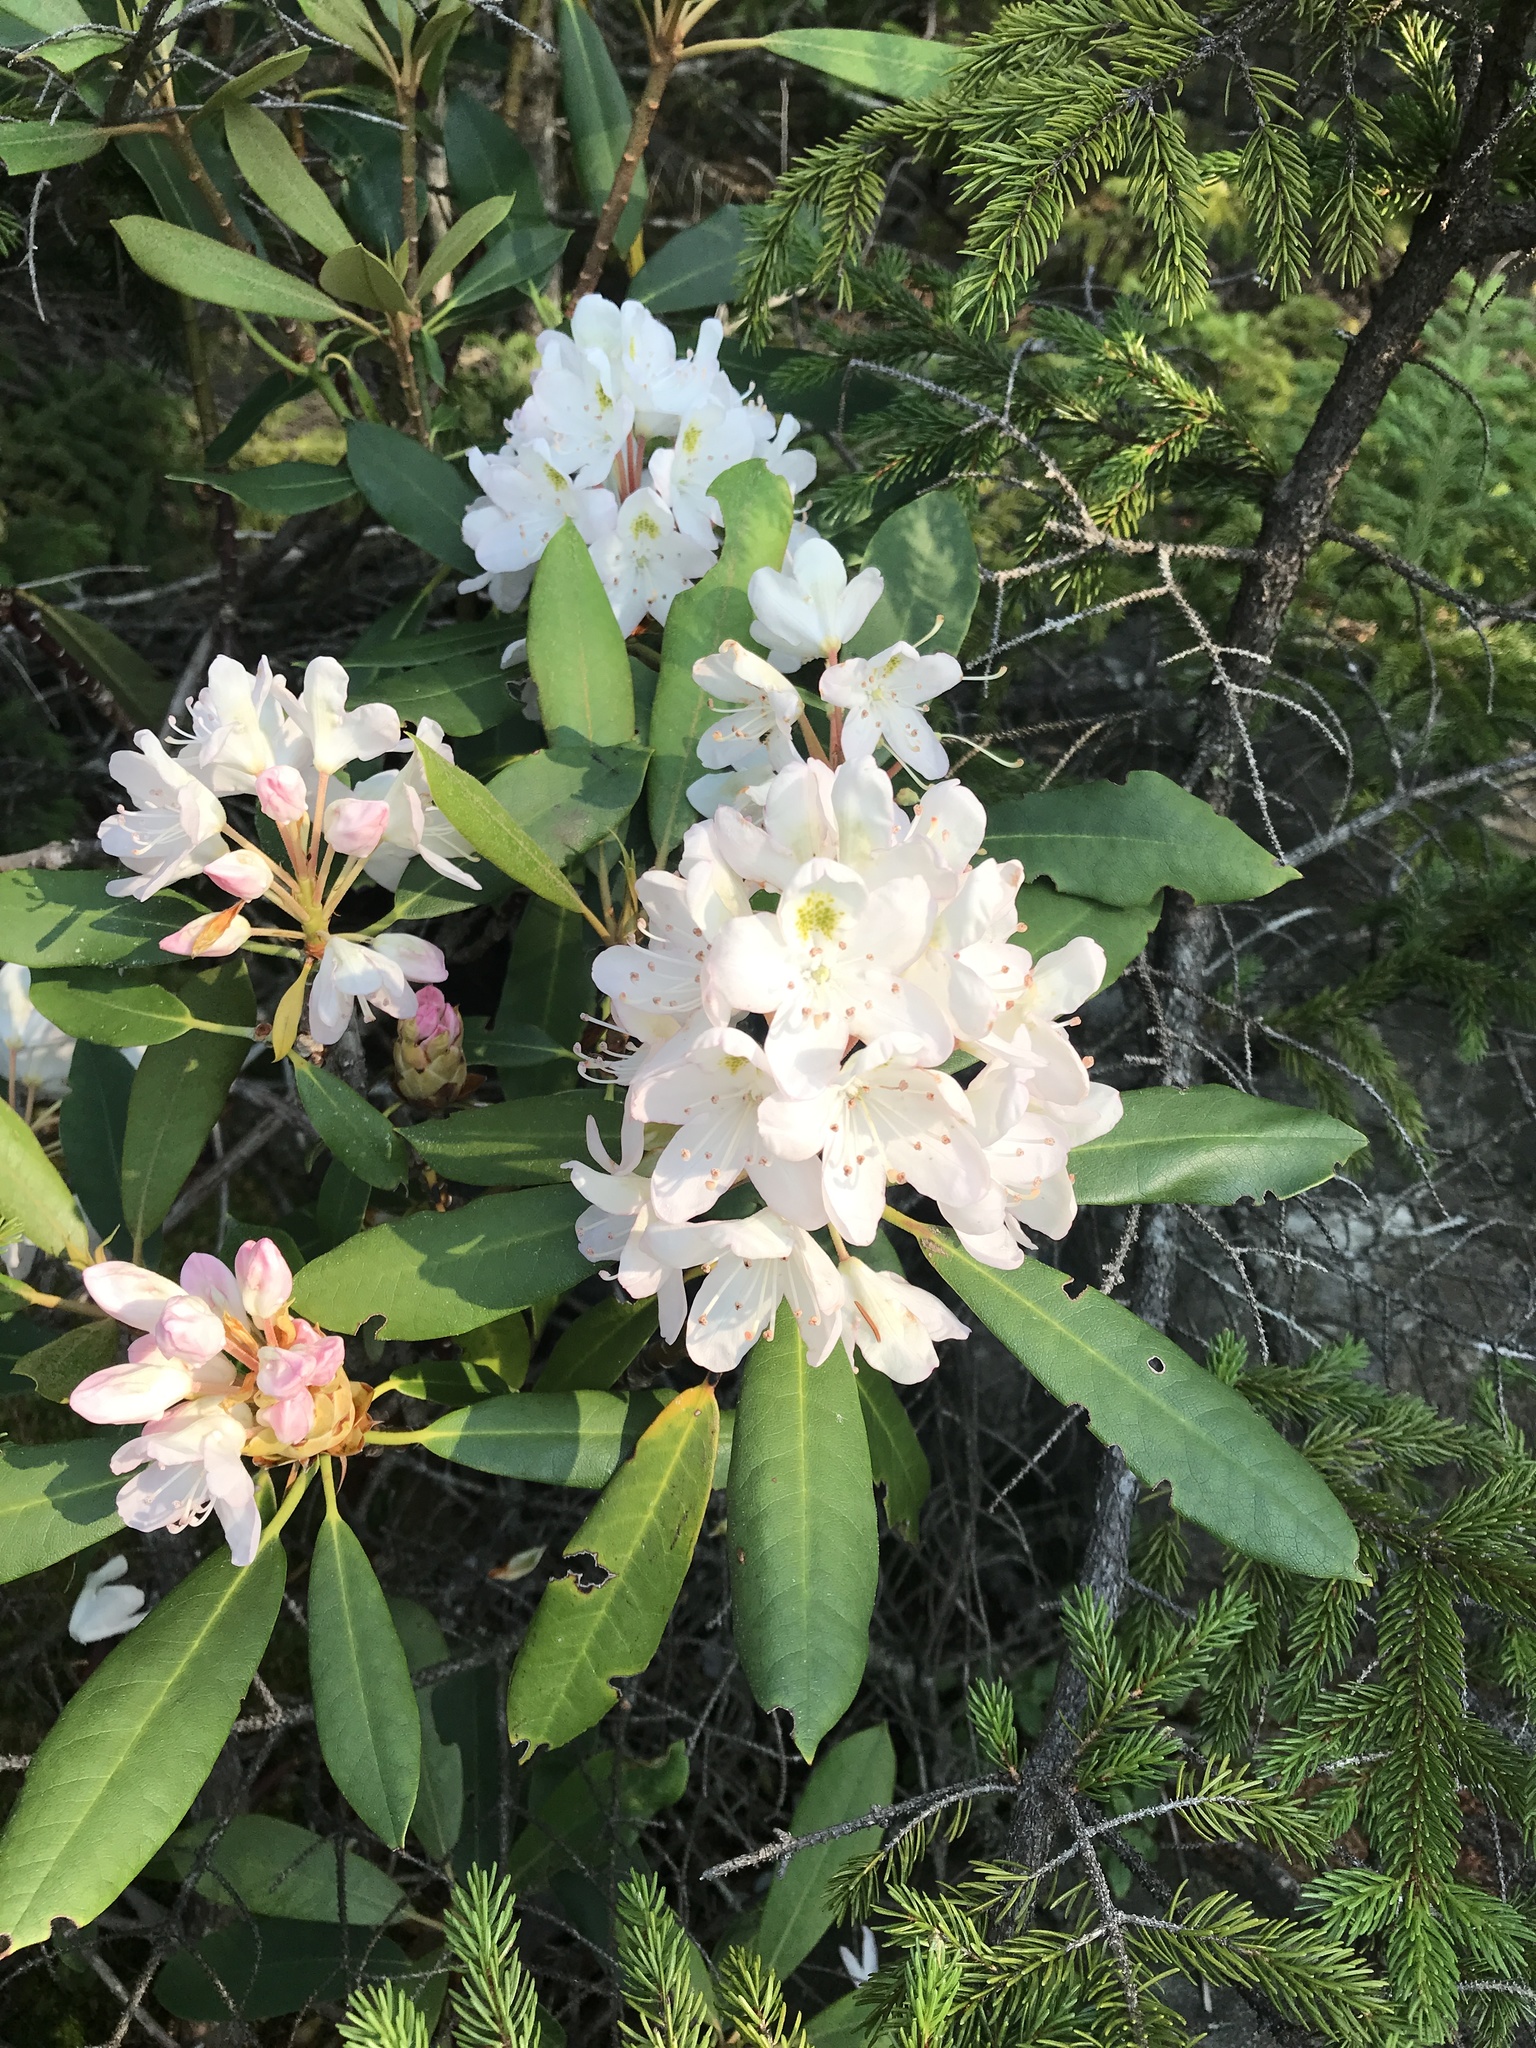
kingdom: Plantae
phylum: Tracheophyta
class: Magnoliopsida
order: Ericales
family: Ericaceae
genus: Rhododendron
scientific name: Rhododendron maximum
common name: Great rhododendron
